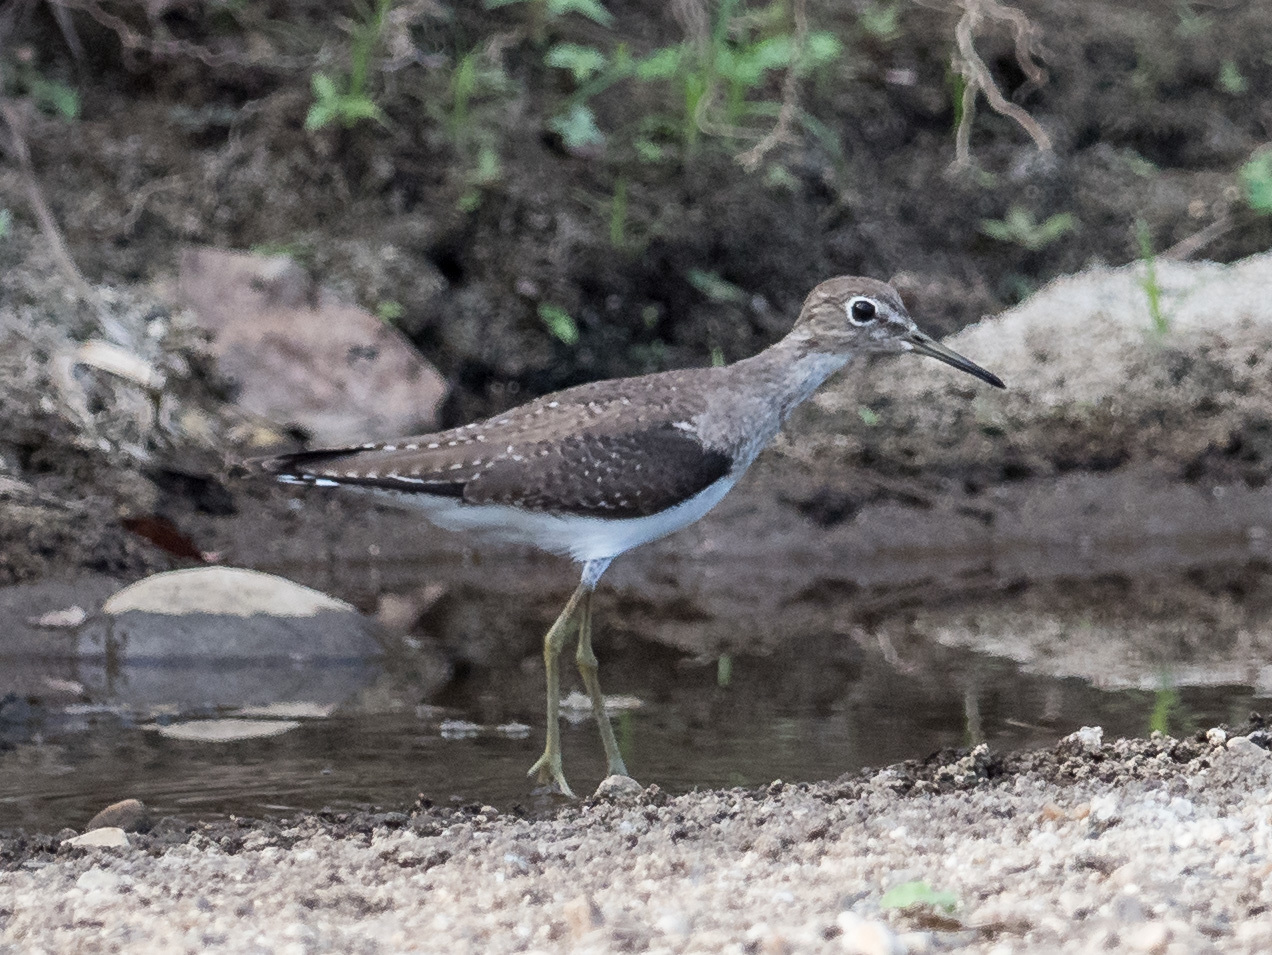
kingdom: Animalia
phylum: Chordata
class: Aves
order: Charadriiformes
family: Scolopacidae
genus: Tringa
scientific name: Tringa solitaria
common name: Solitary sandpiper
